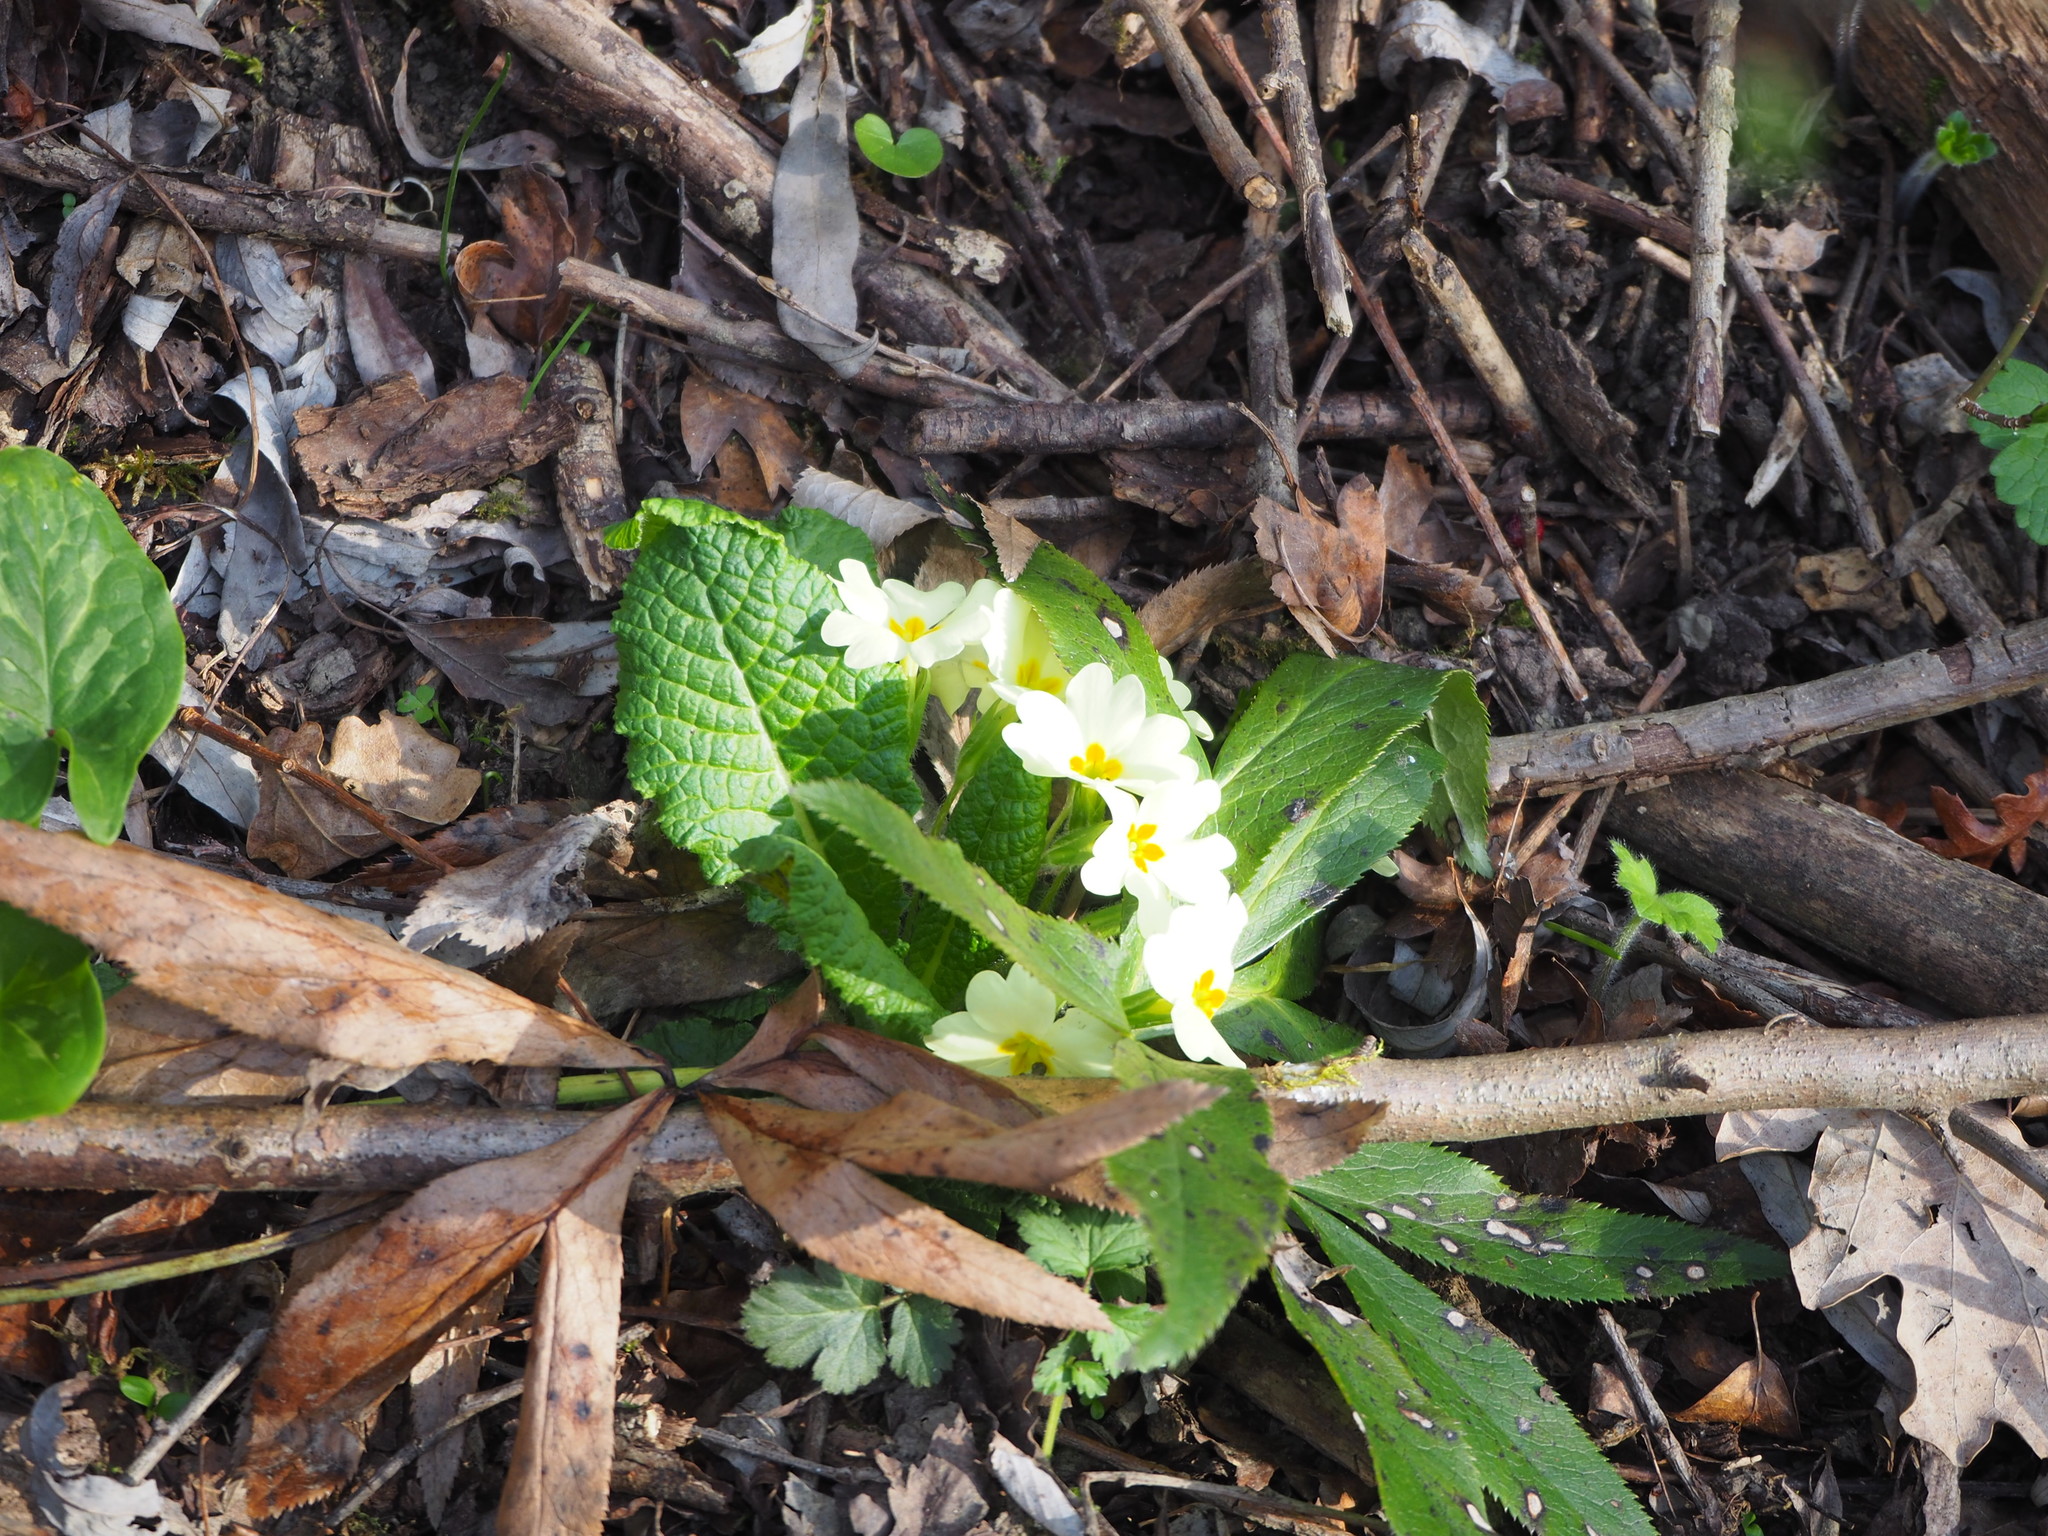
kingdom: Plantae
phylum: Tracheophyta
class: Magnoliopsida
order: Ericales
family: Primulaceae
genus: Primula
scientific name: Primula vulgaris
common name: Primrose
